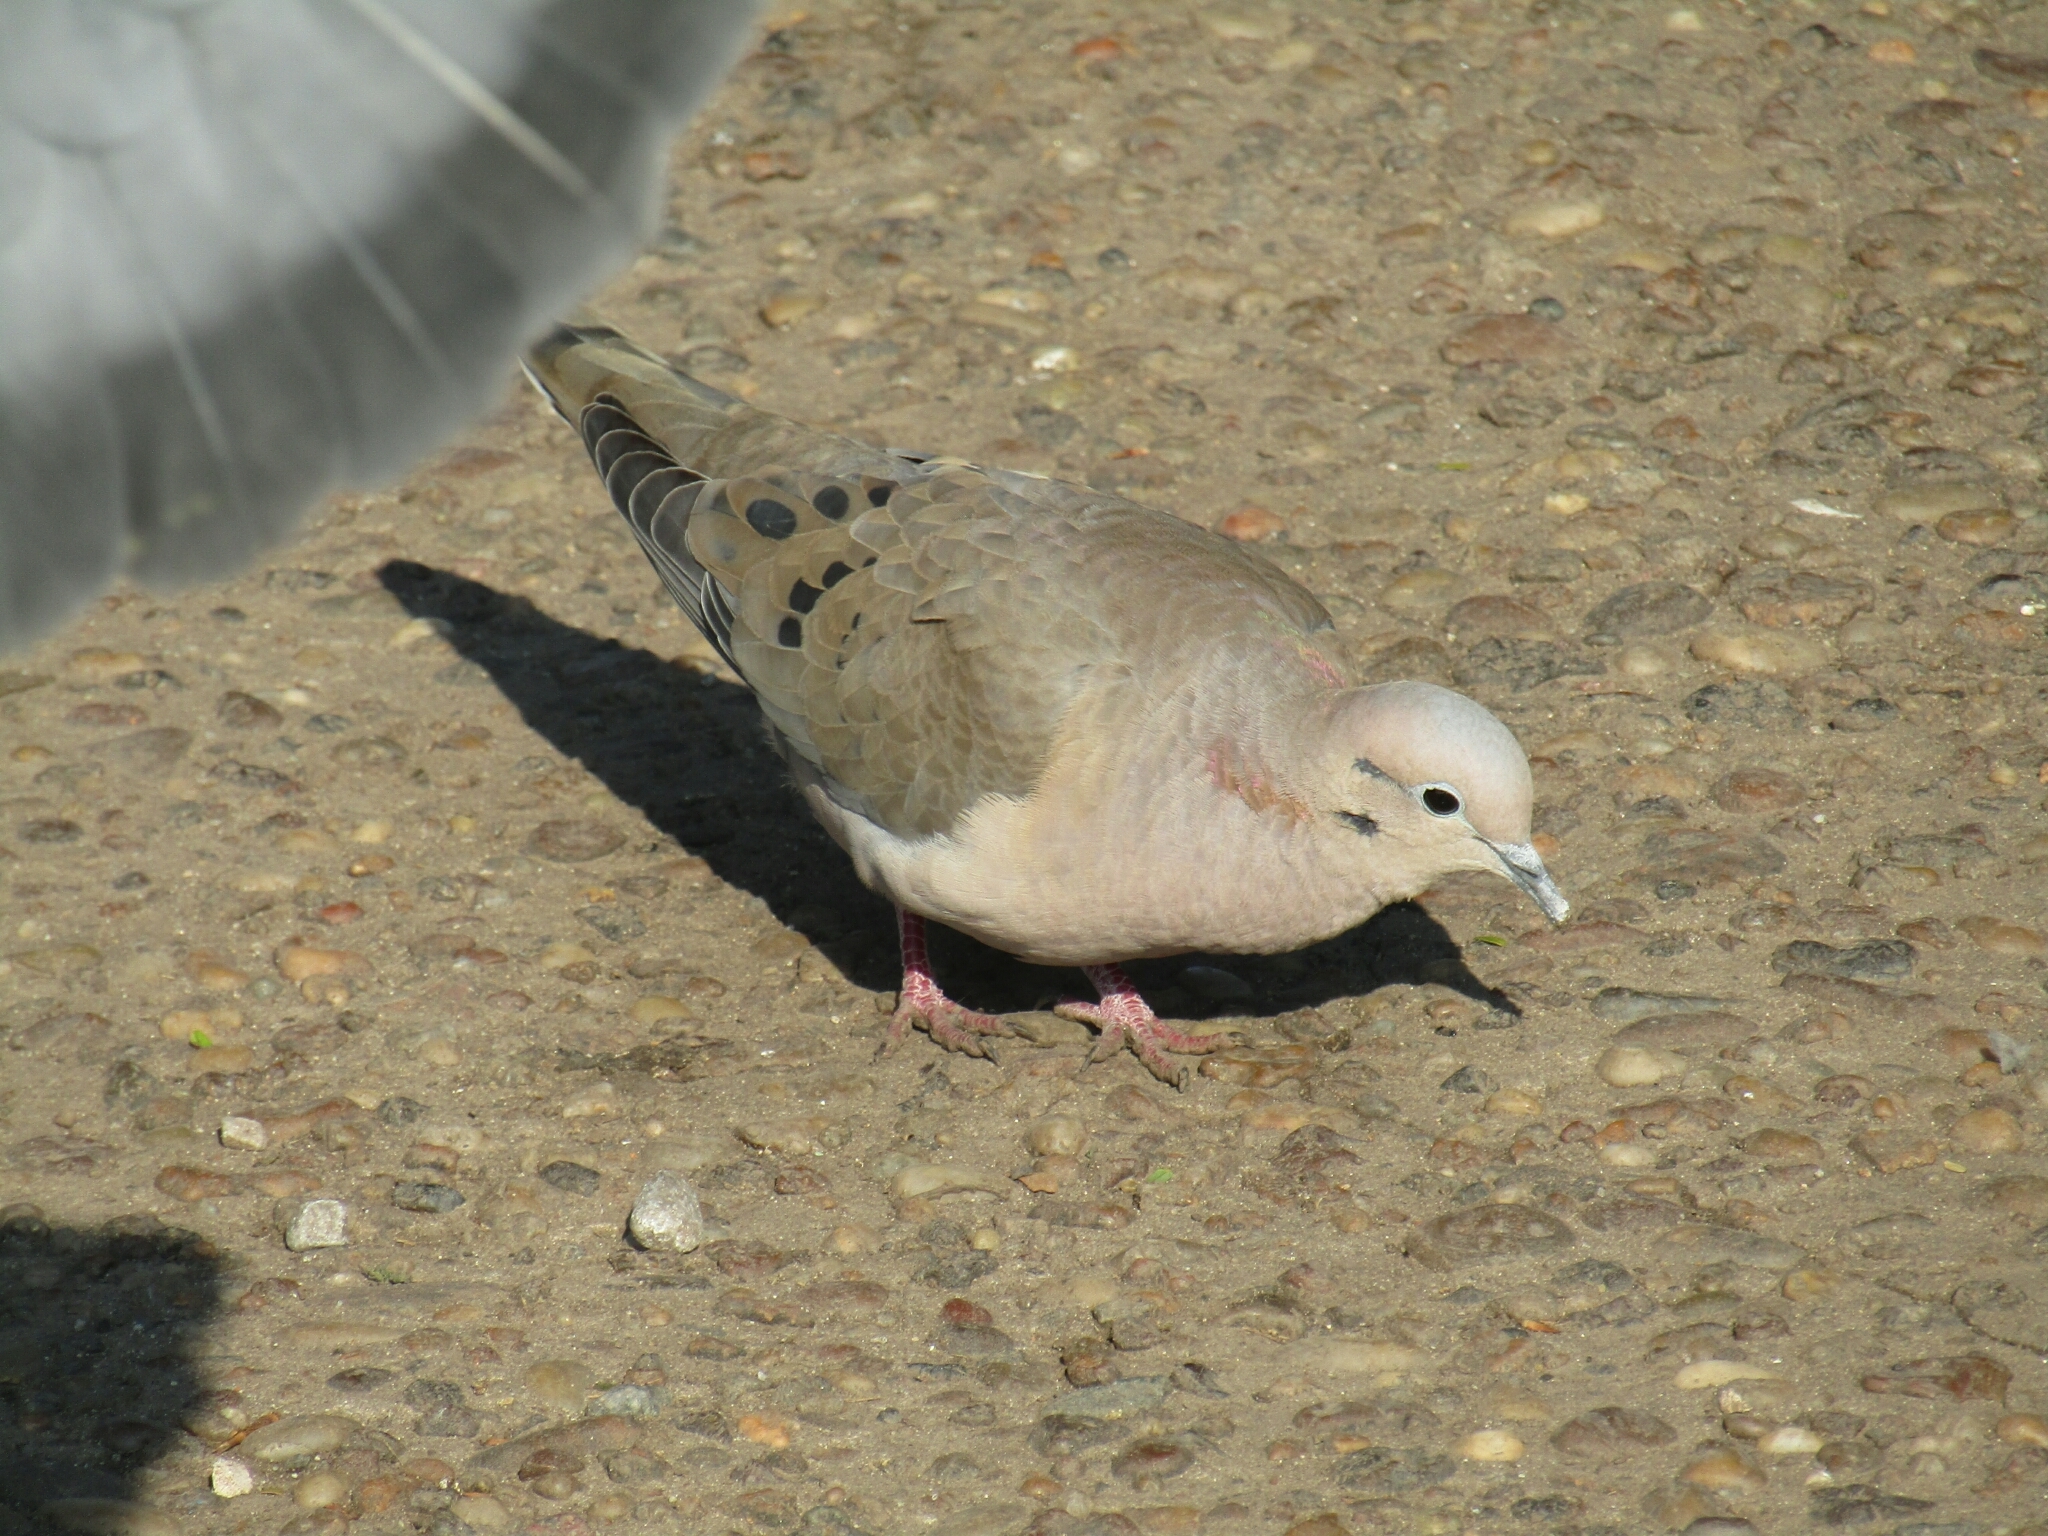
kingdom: Animalia
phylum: Chordata
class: Aves
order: Columbiformes
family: Columbidae
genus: Zenaida
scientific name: Zenaida auriculata
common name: Eared dove
